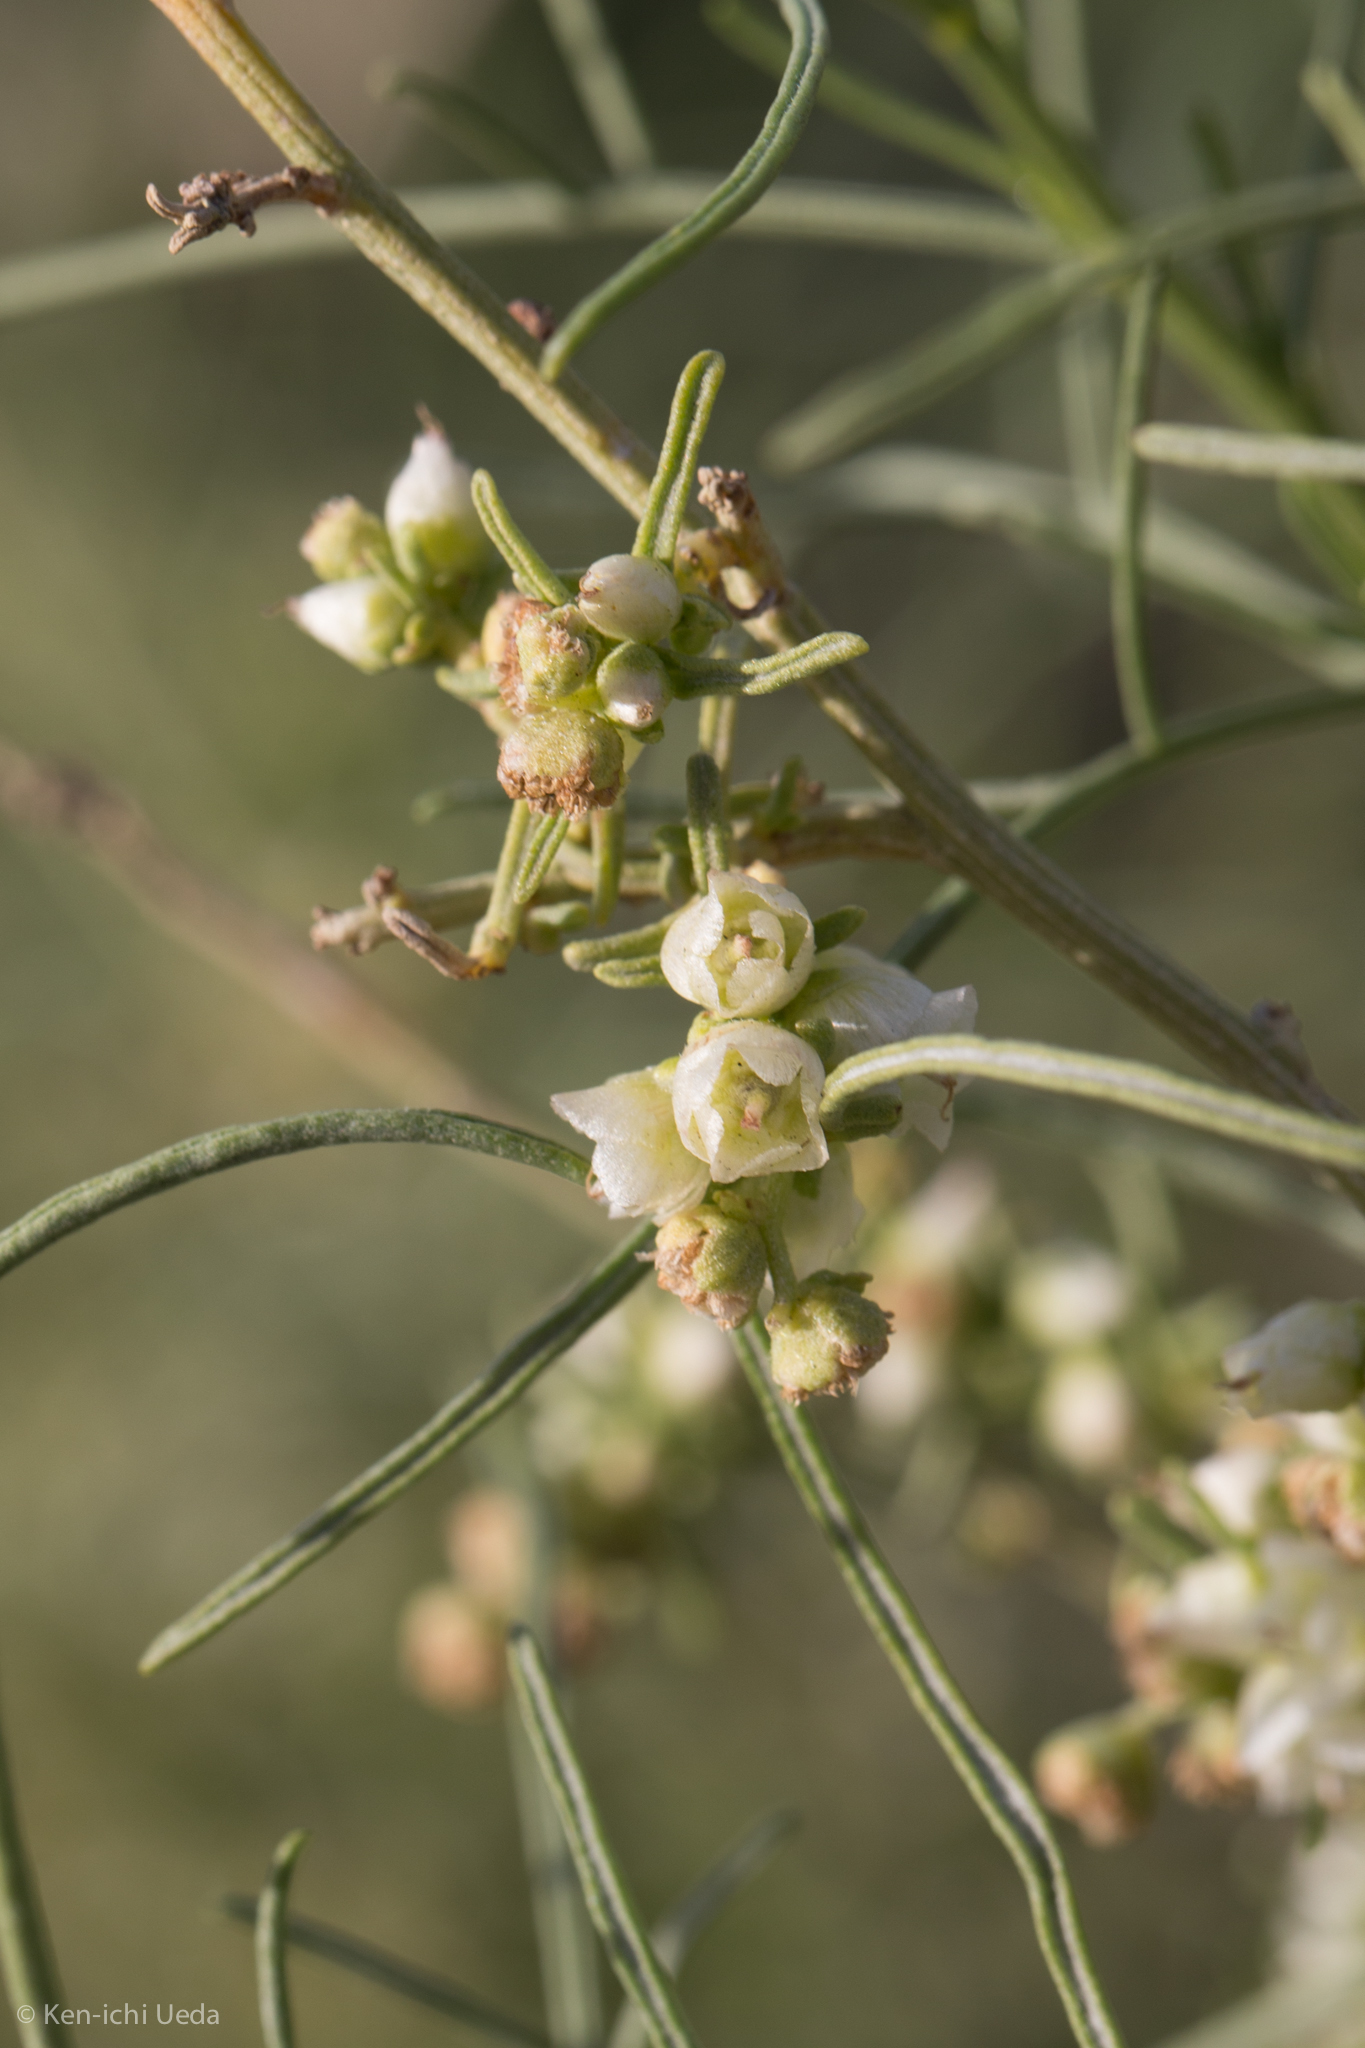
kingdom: Plantae
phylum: Tracheophyta
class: Magnoliopsida
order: Asterales
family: Asteraceae
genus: Ambrosia
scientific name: Ambrosia salsola
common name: Burrobrush
